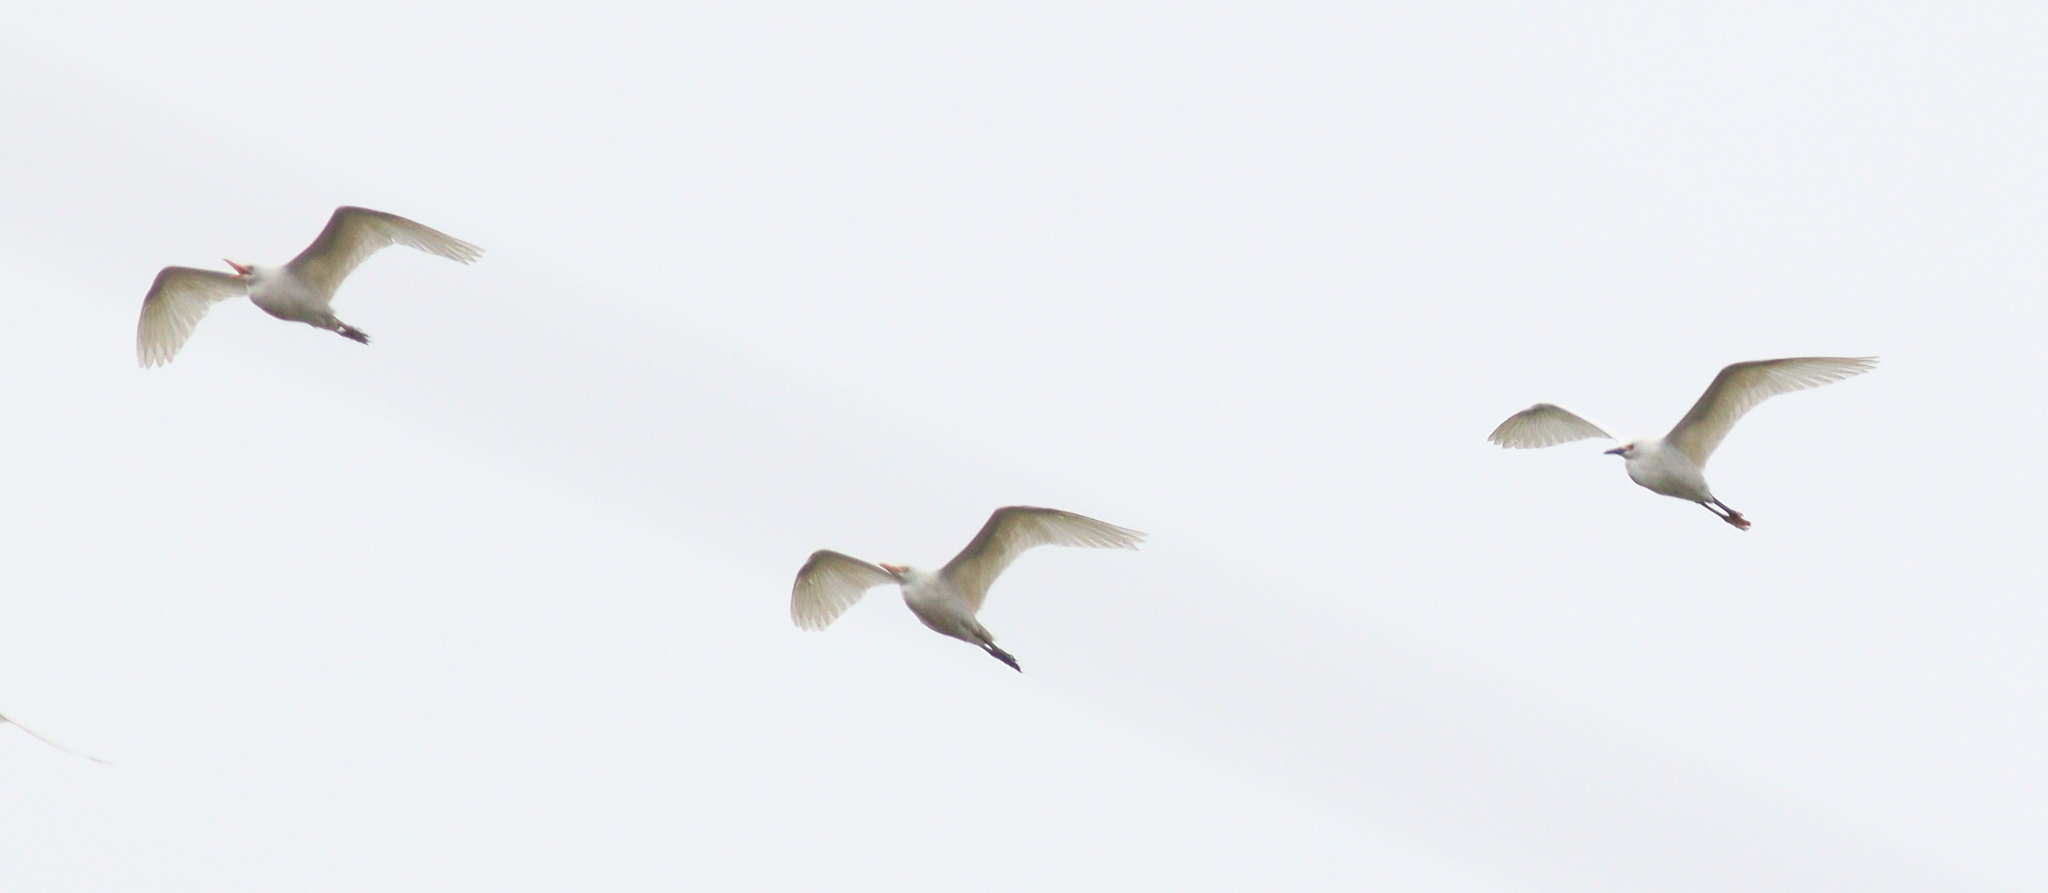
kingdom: Animalia
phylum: Chordata
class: Aves
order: Pelecaniformes
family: Ardeidae
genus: Bubulcus
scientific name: Bubulcus ibis
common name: Cattle egret
